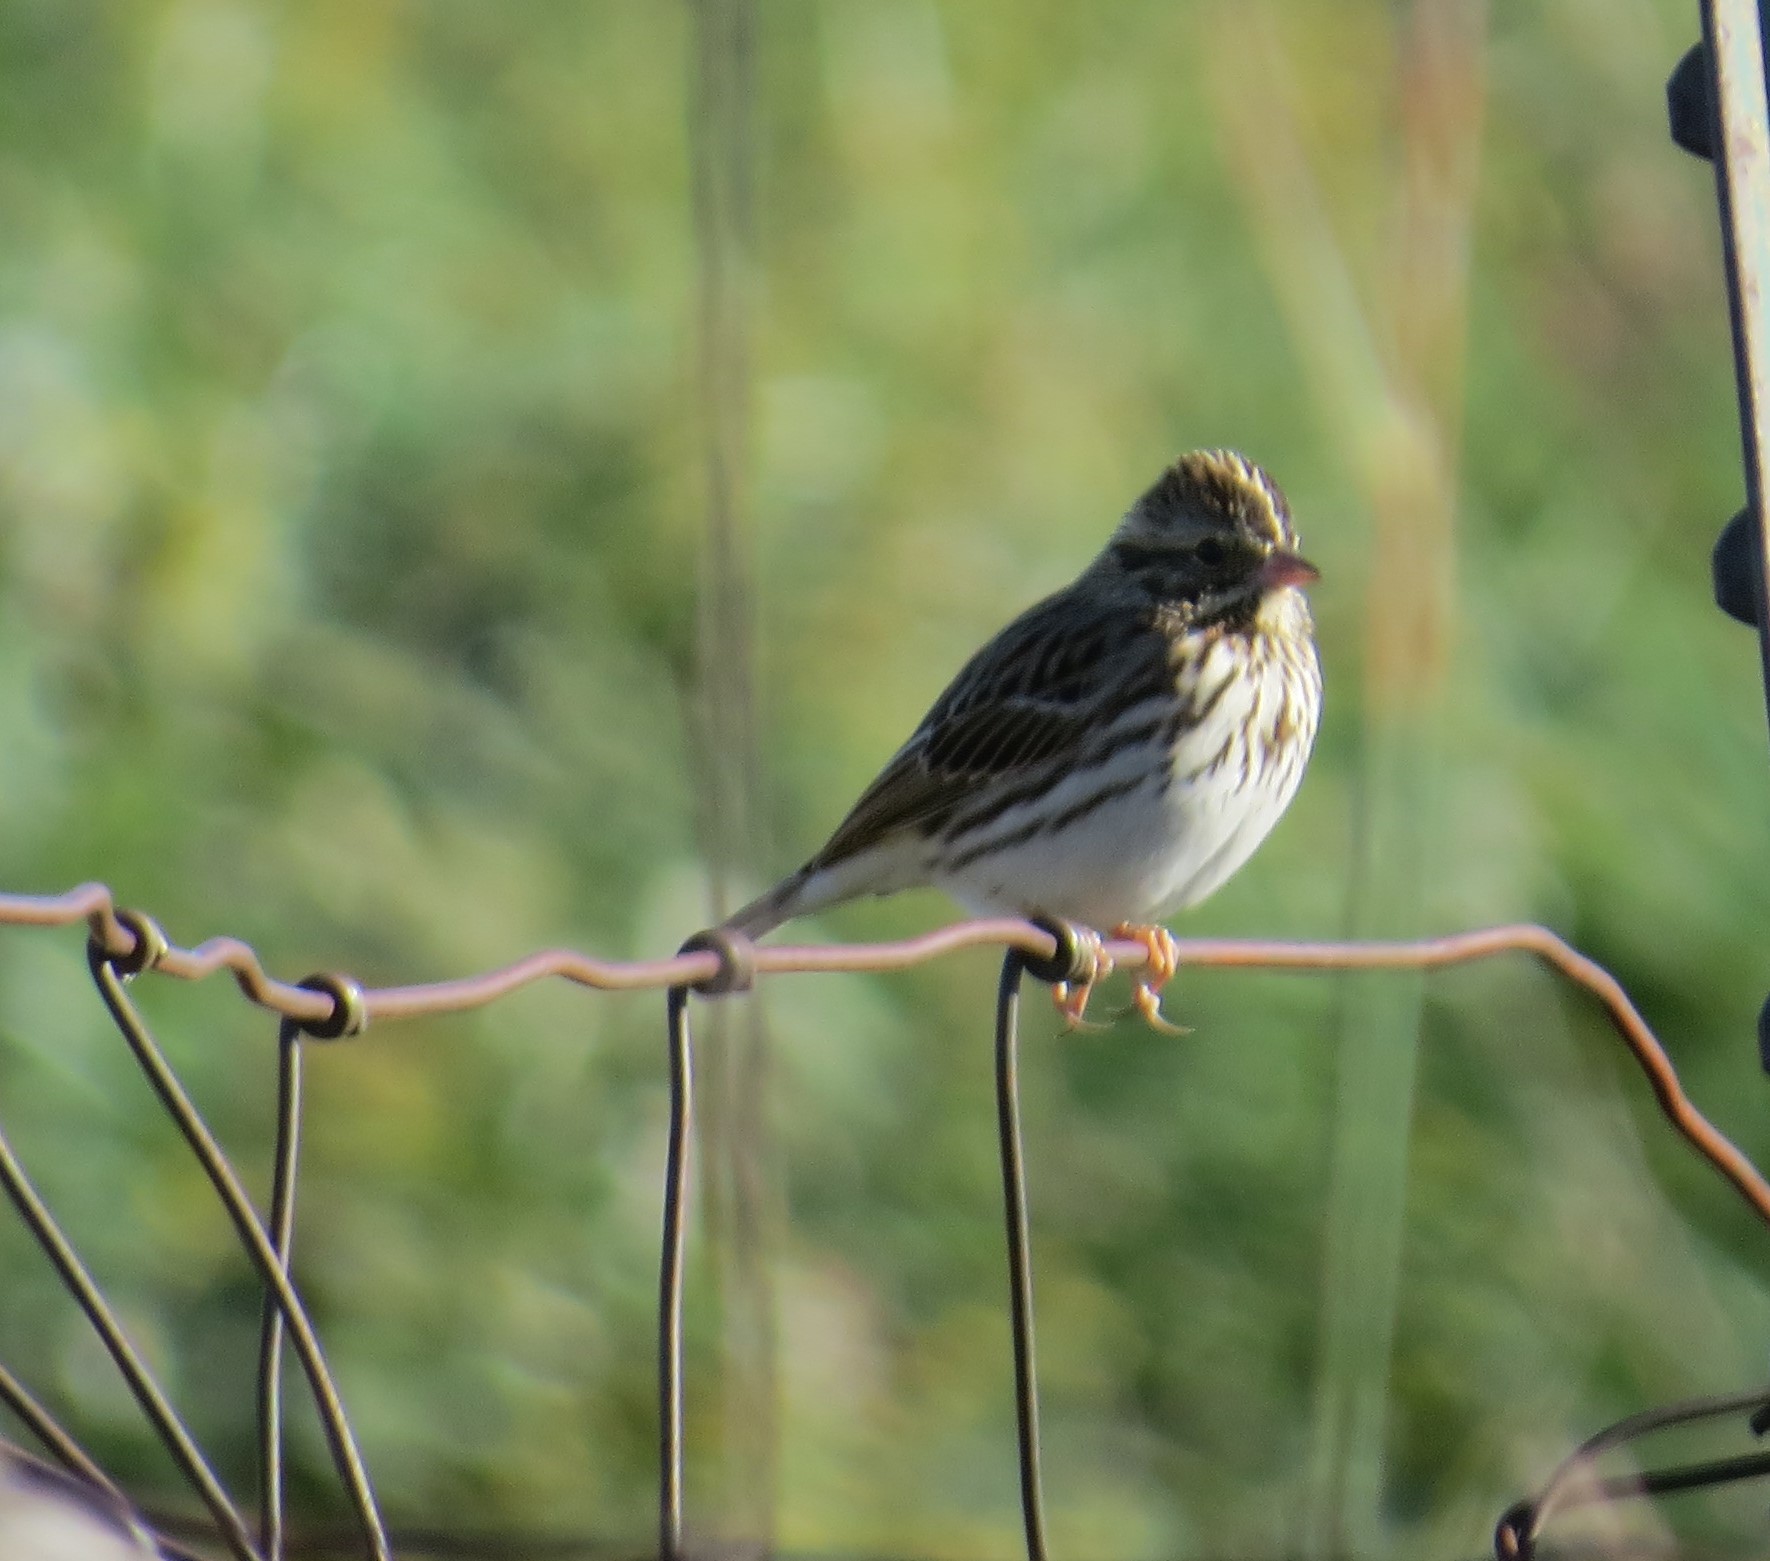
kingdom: Animalia
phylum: Chordata
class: Aves
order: Passeriformes
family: Passerellidae
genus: Passerculus
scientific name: Passerculus sandwichensis
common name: Savannah sparrow
